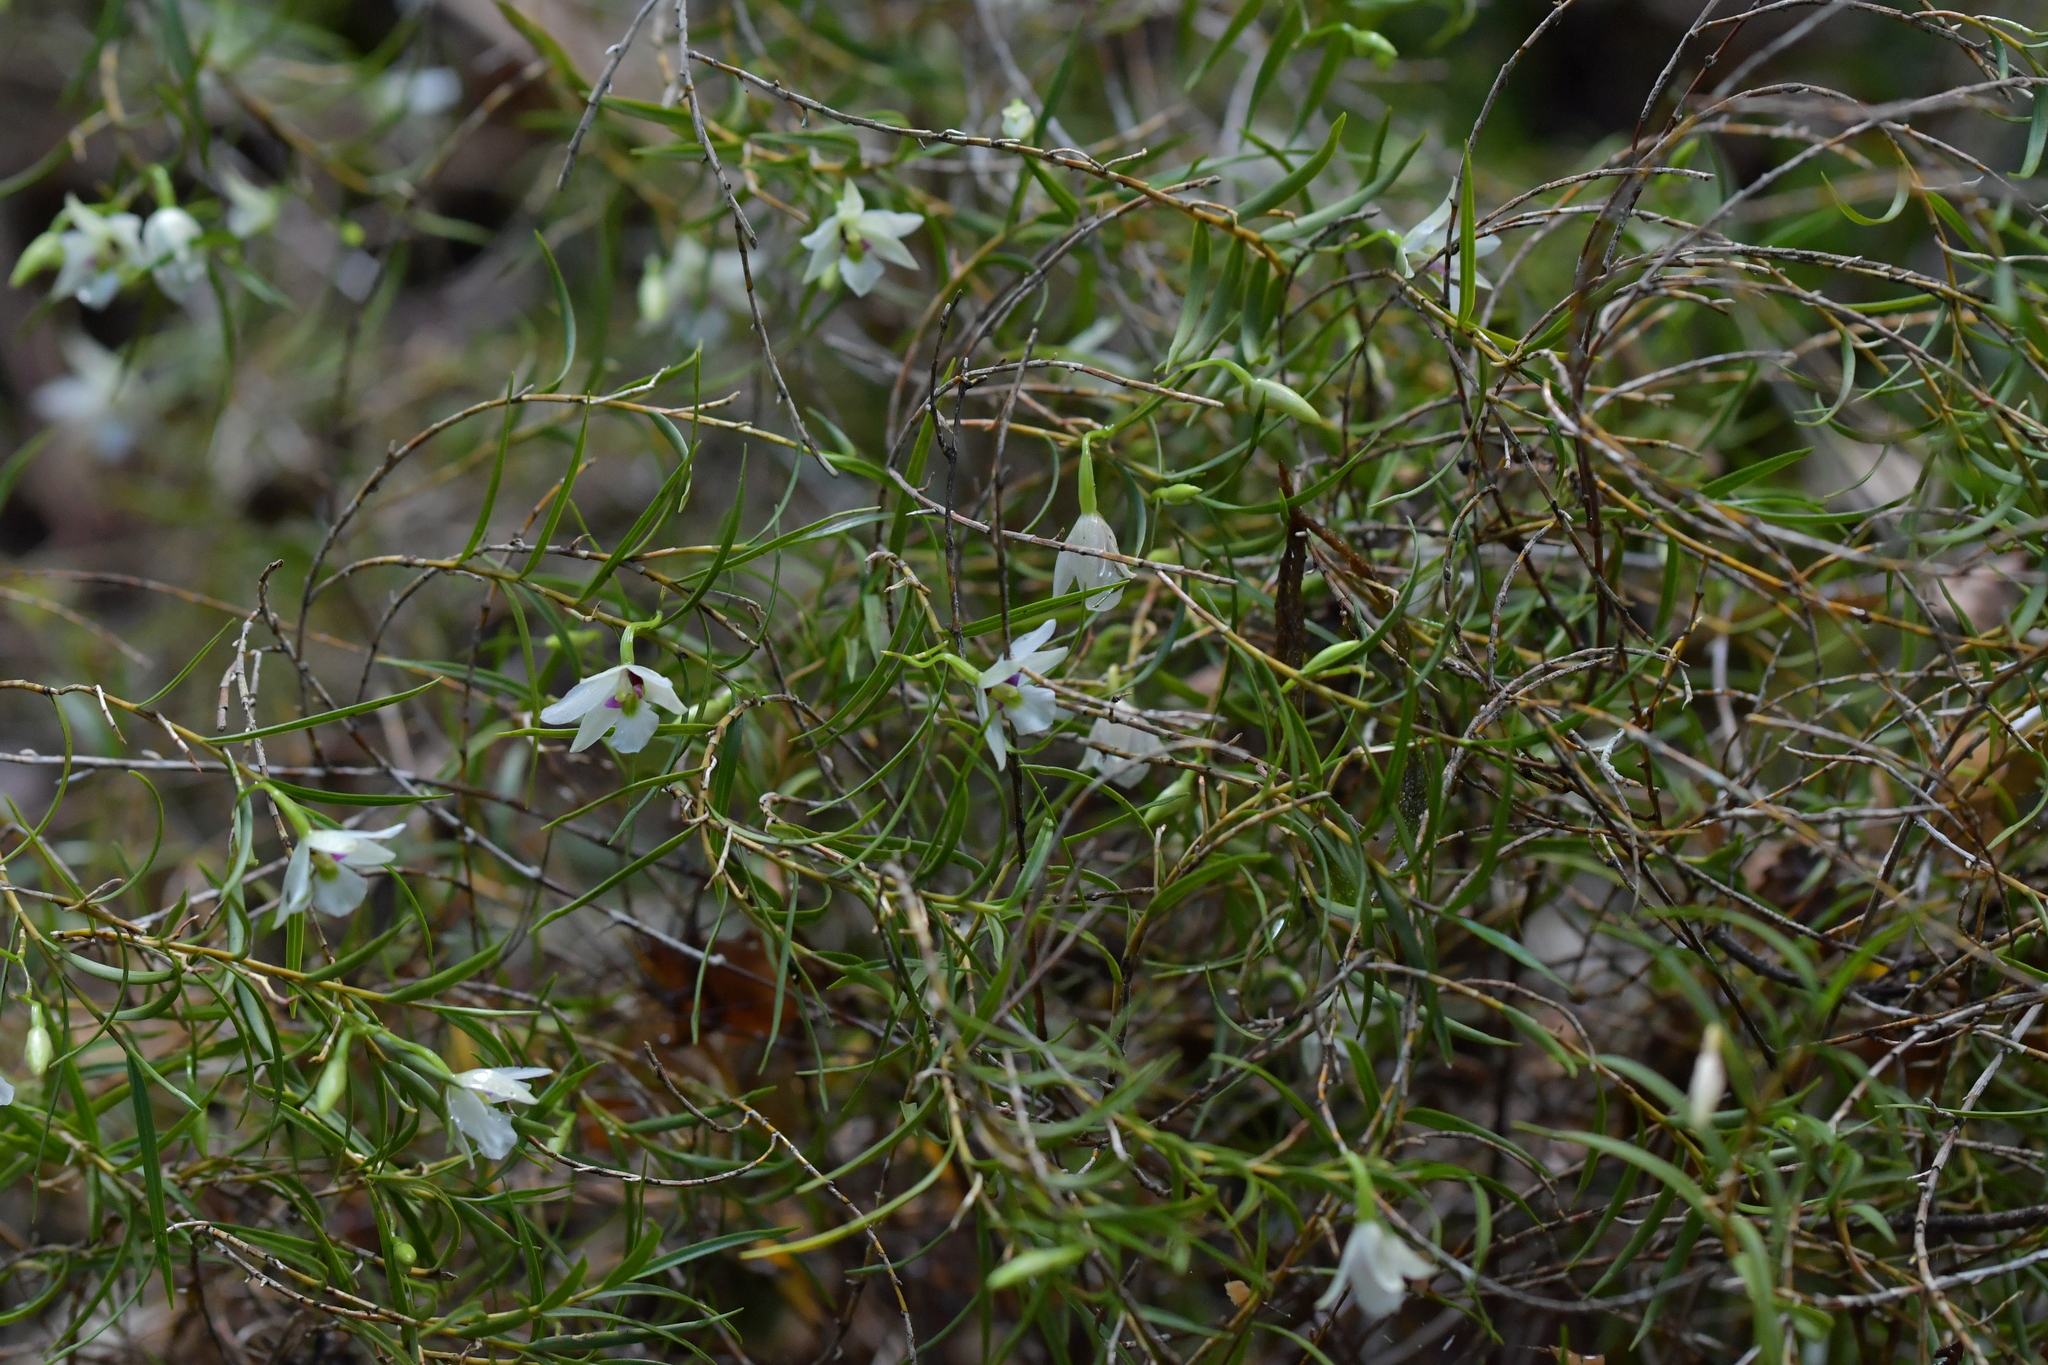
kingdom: Plantae
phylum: Tracheophyta
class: Liliopsida
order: Asparagales
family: Orchidaceae
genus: Dendrobium
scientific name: Dendrobium cunninghamii
